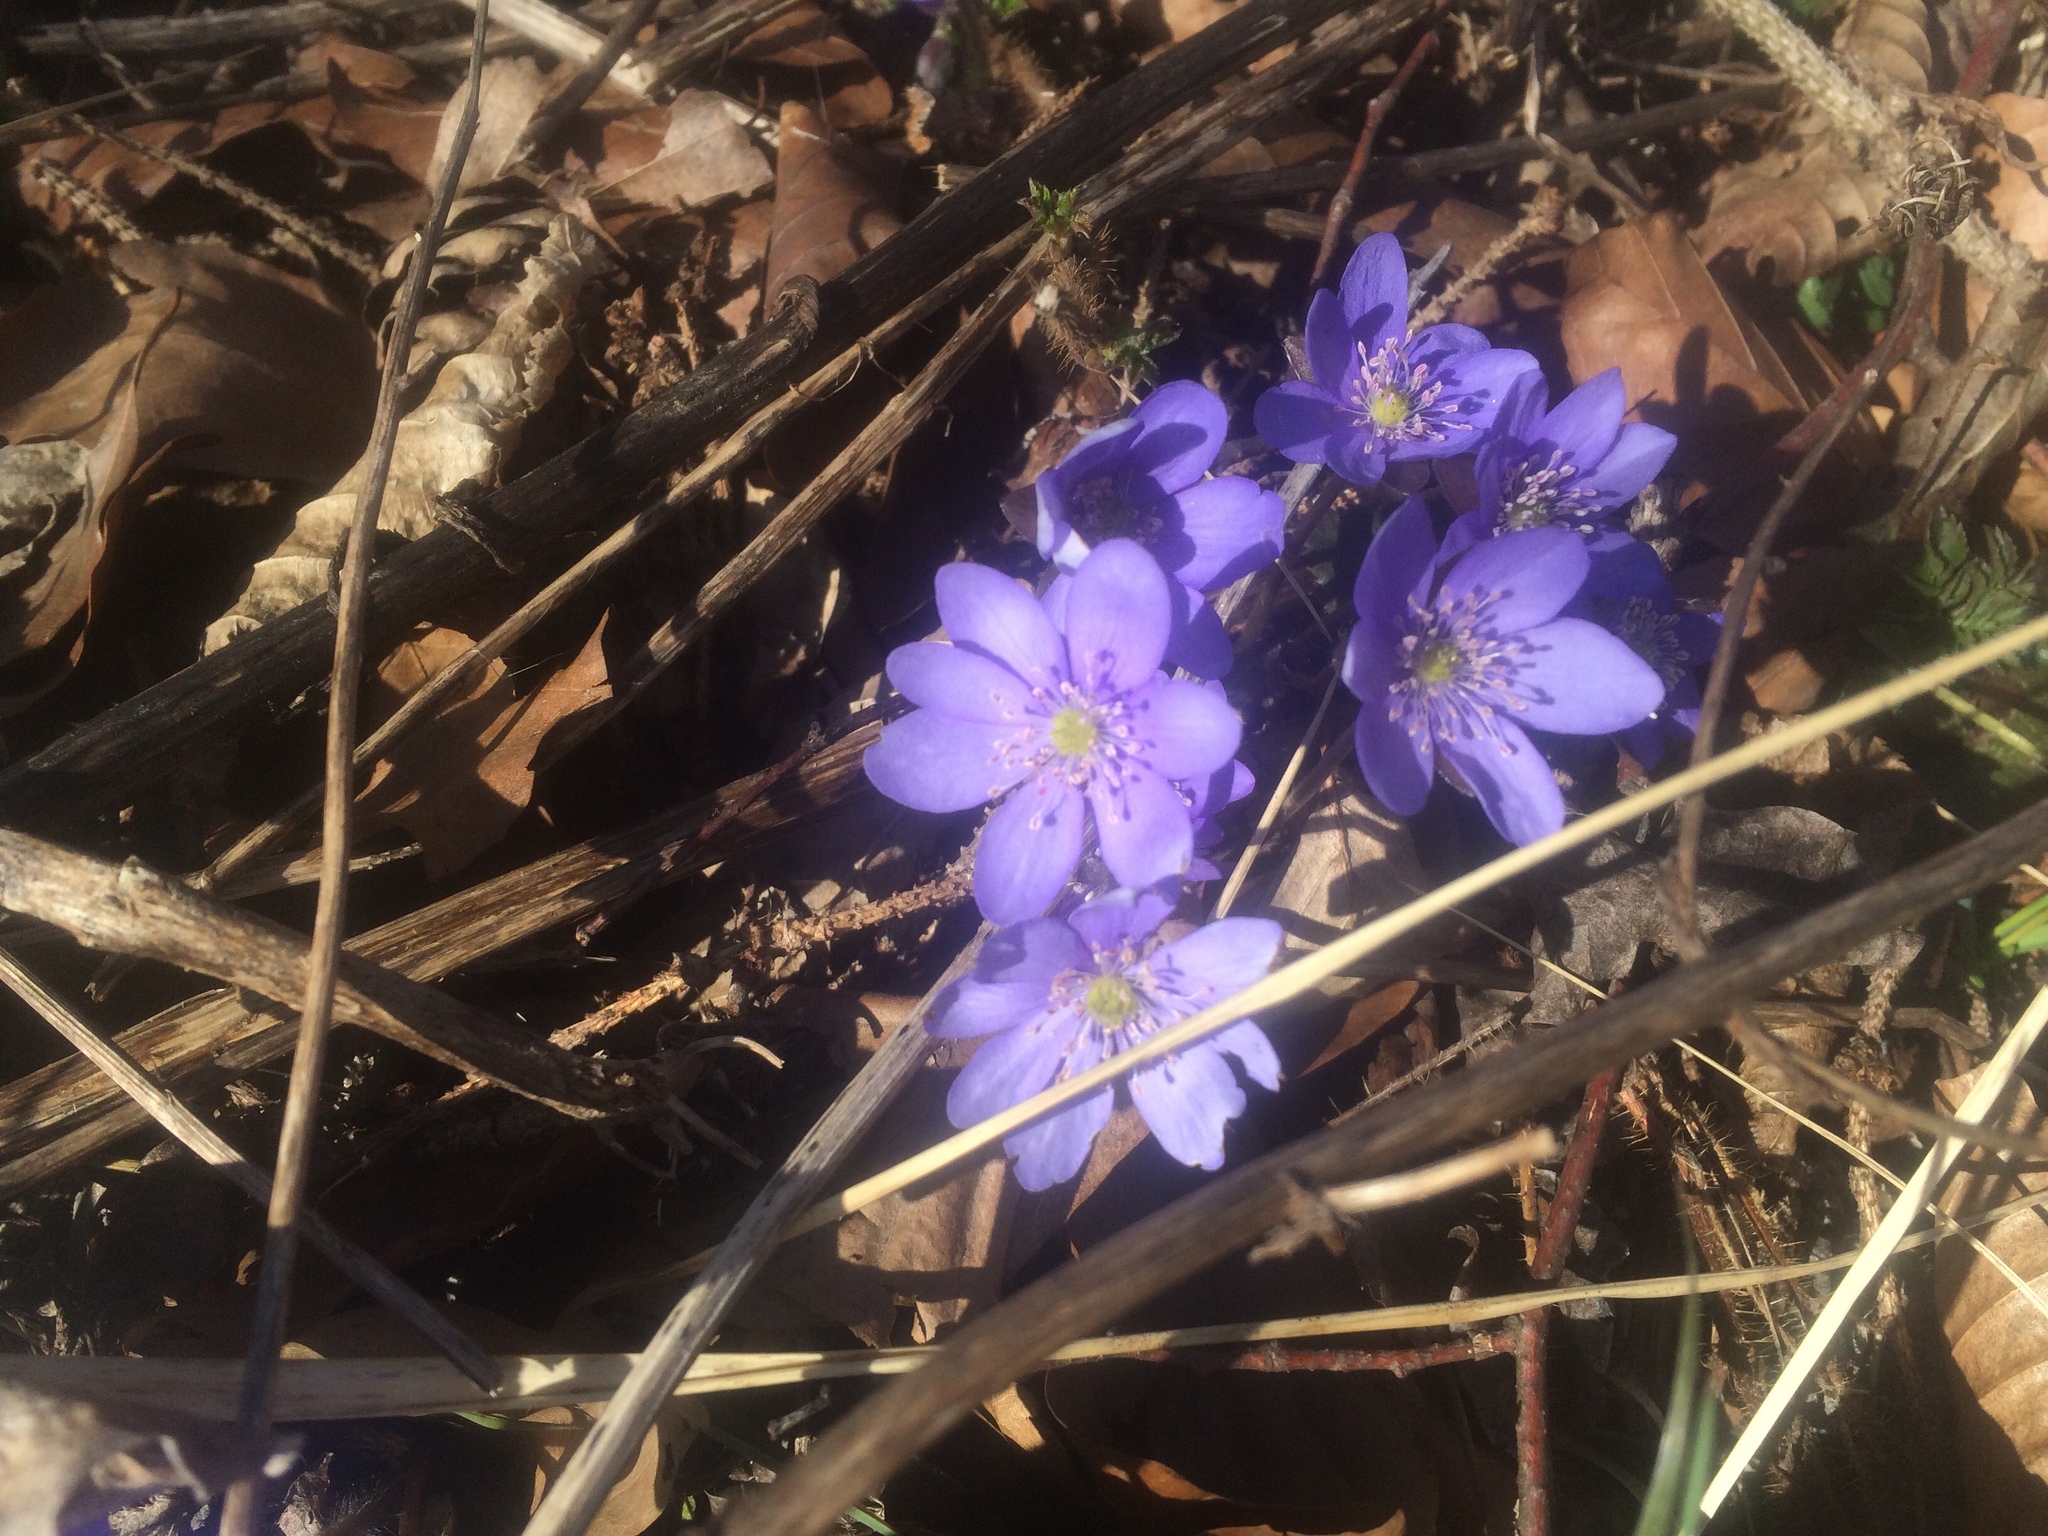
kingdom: Plantae
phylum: Tracheophyta
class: Magnoliopsida
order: Ranunculales
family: Ranunculaceae
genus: Hepatica
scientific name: Hepatica nobilis
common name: Liverleaf
